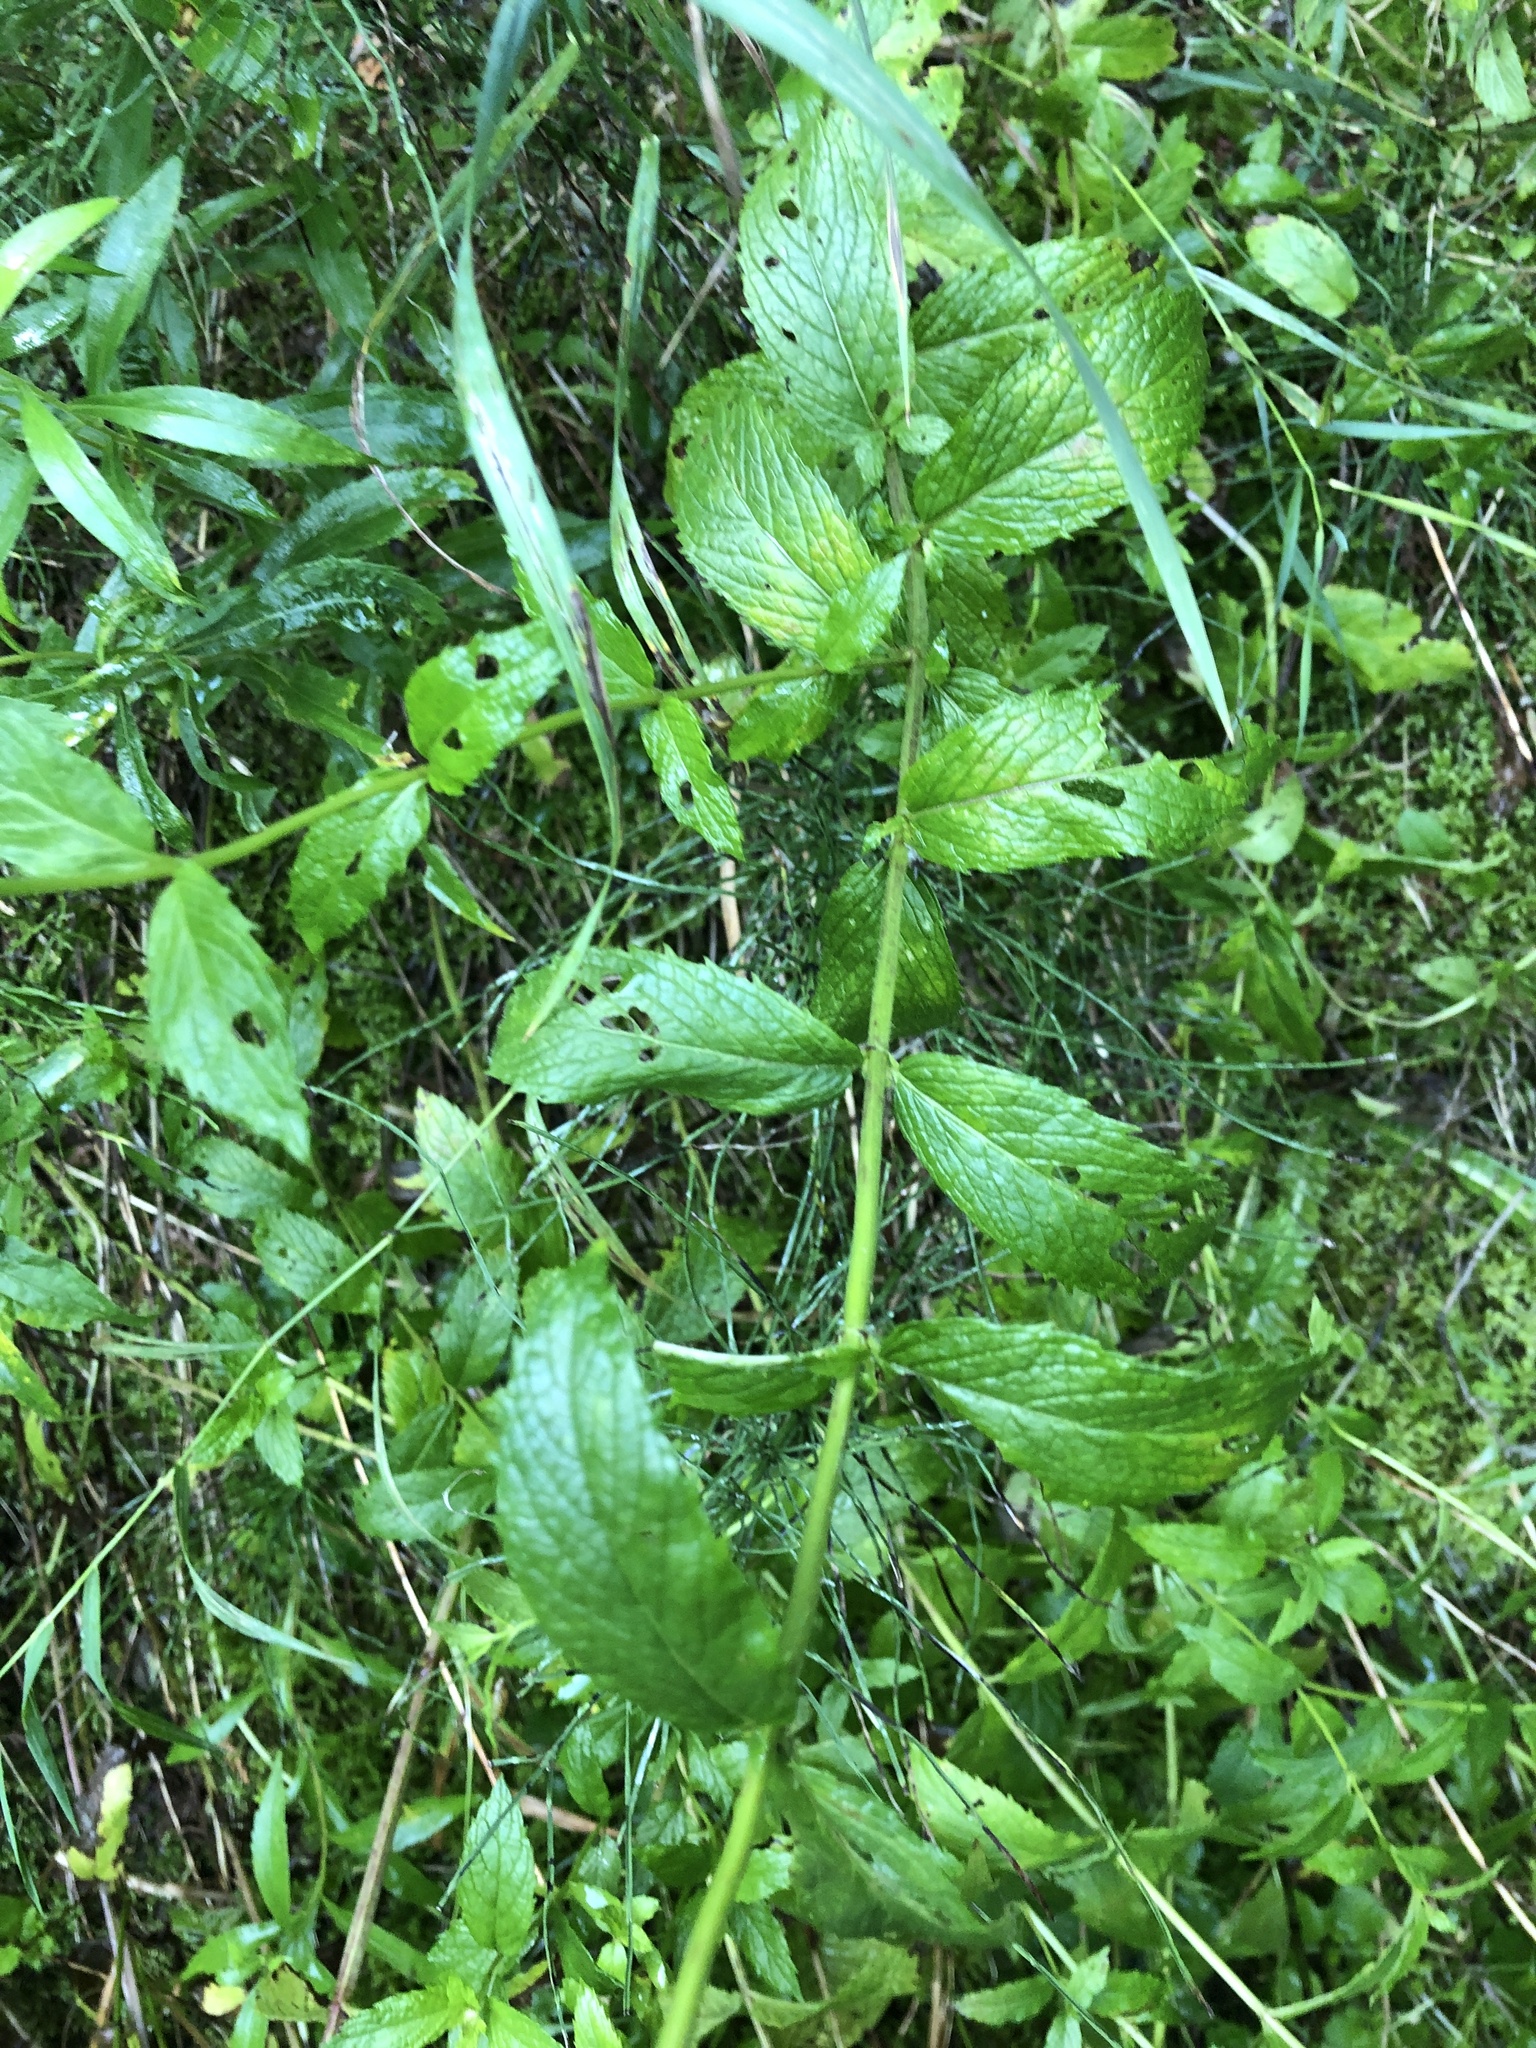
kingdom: Plantae
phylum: Tracheophyta
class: Magnoliopsida
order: Lamiales
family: Lamiaceae
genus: Mentha
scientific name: Mentha spicata
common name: Spearmint
